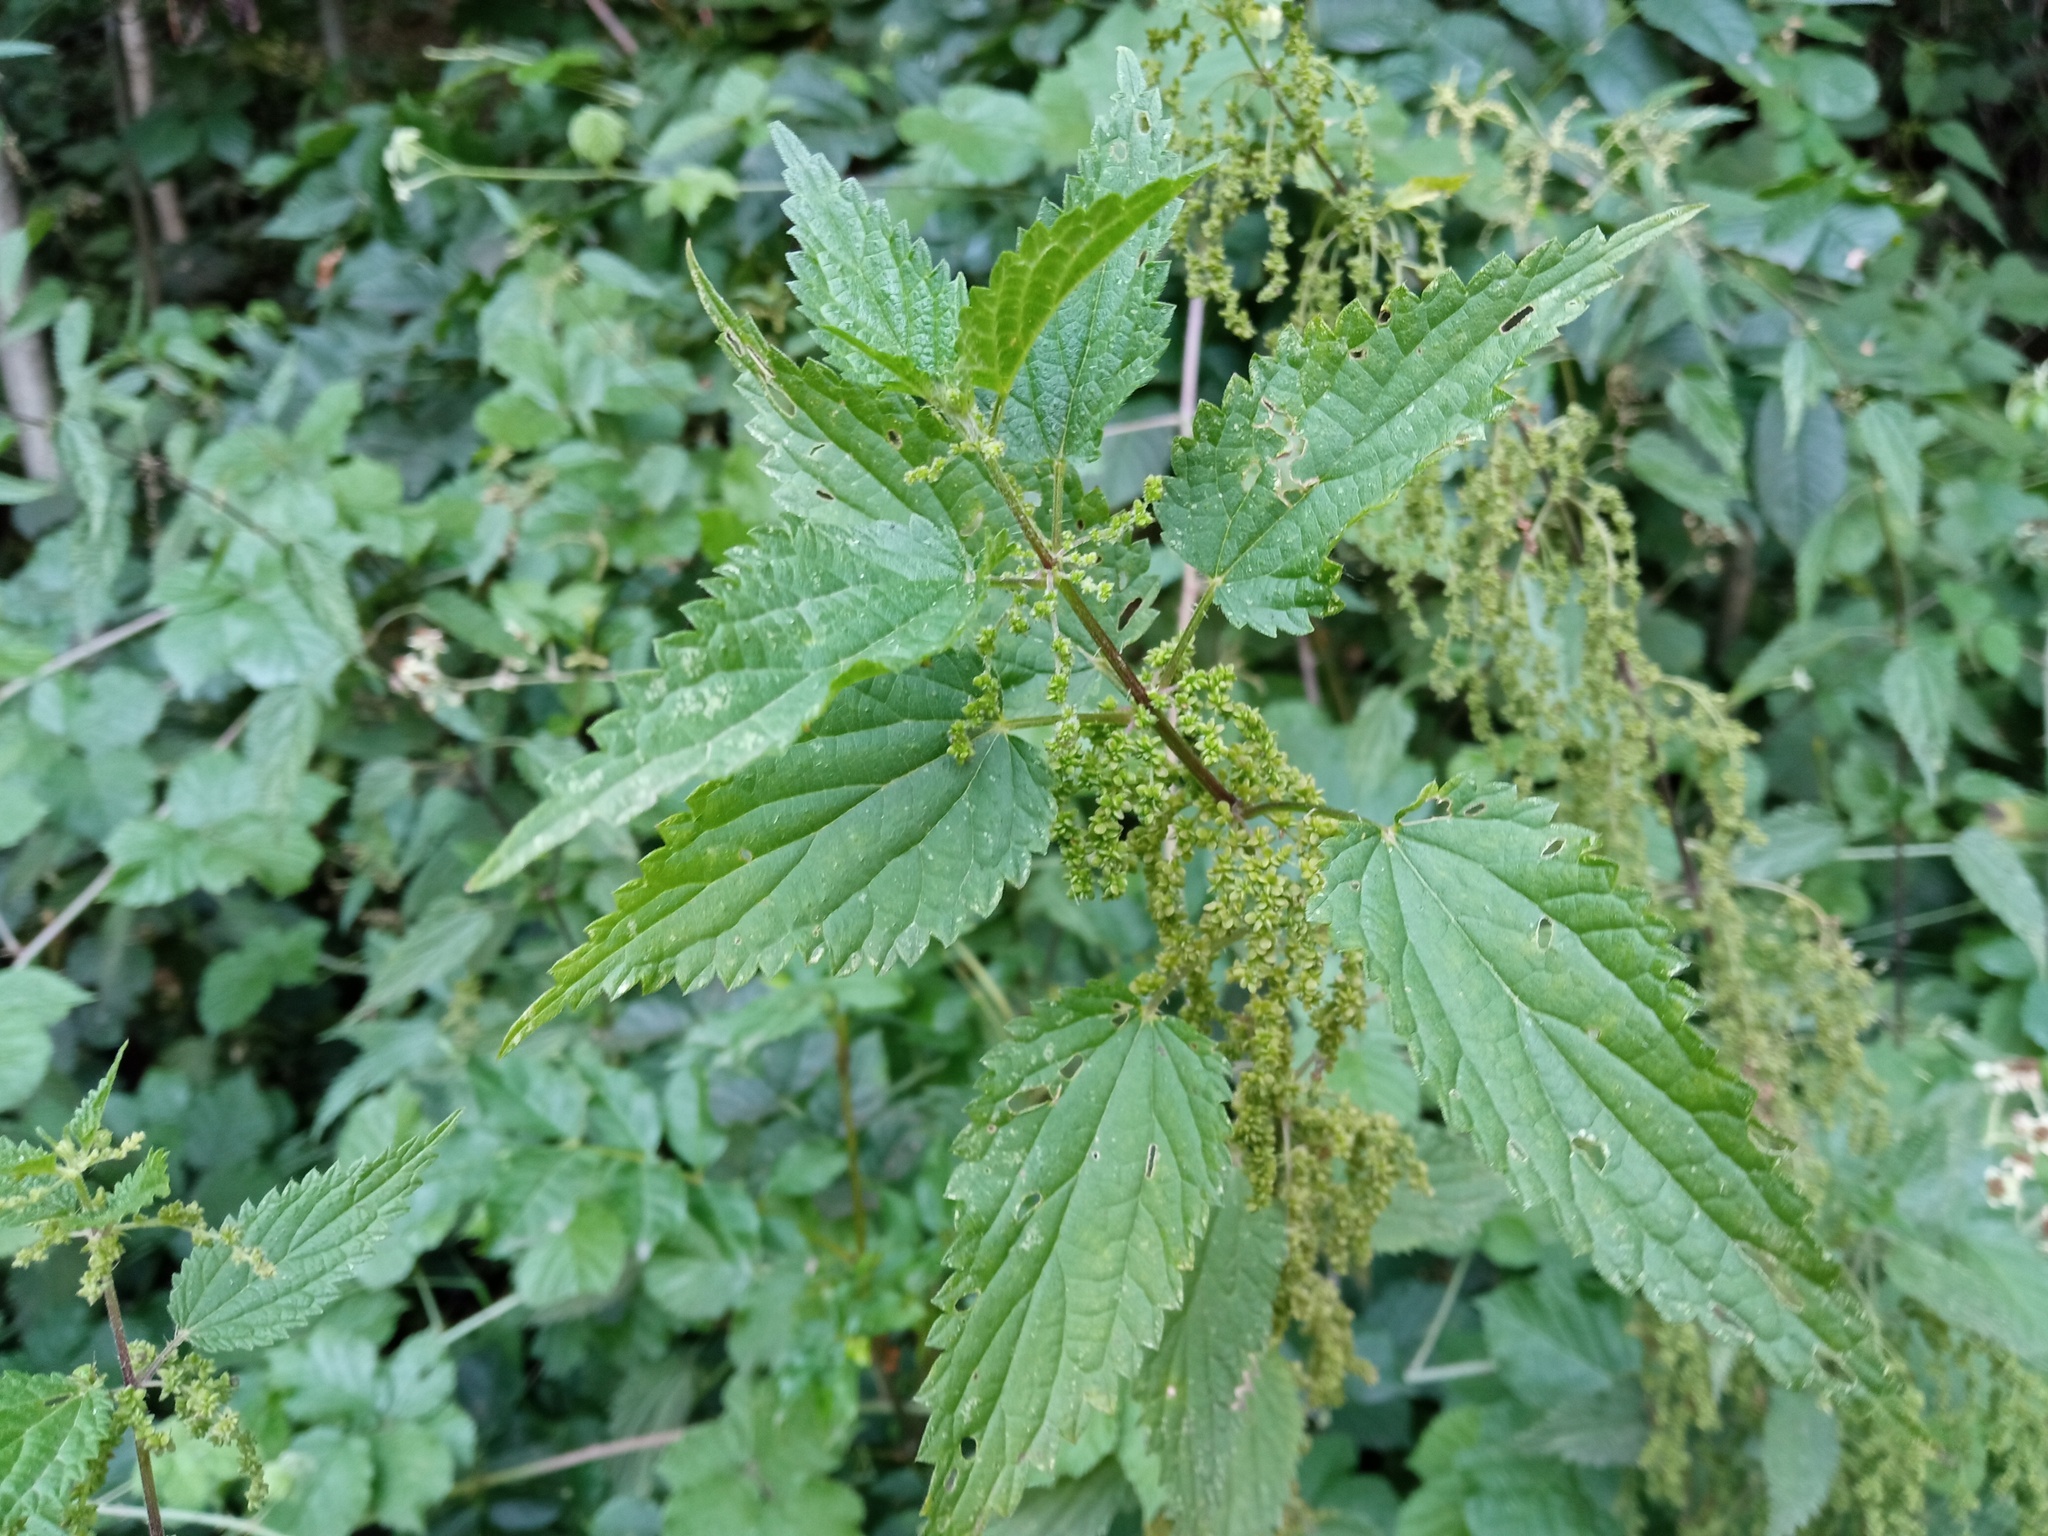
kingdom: Plantae
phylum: Tracheophyta
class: Magnoliopsida
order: Rosales
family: Urticaceae
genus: Urtica
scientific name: Urtica dioica
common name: Common nettle
